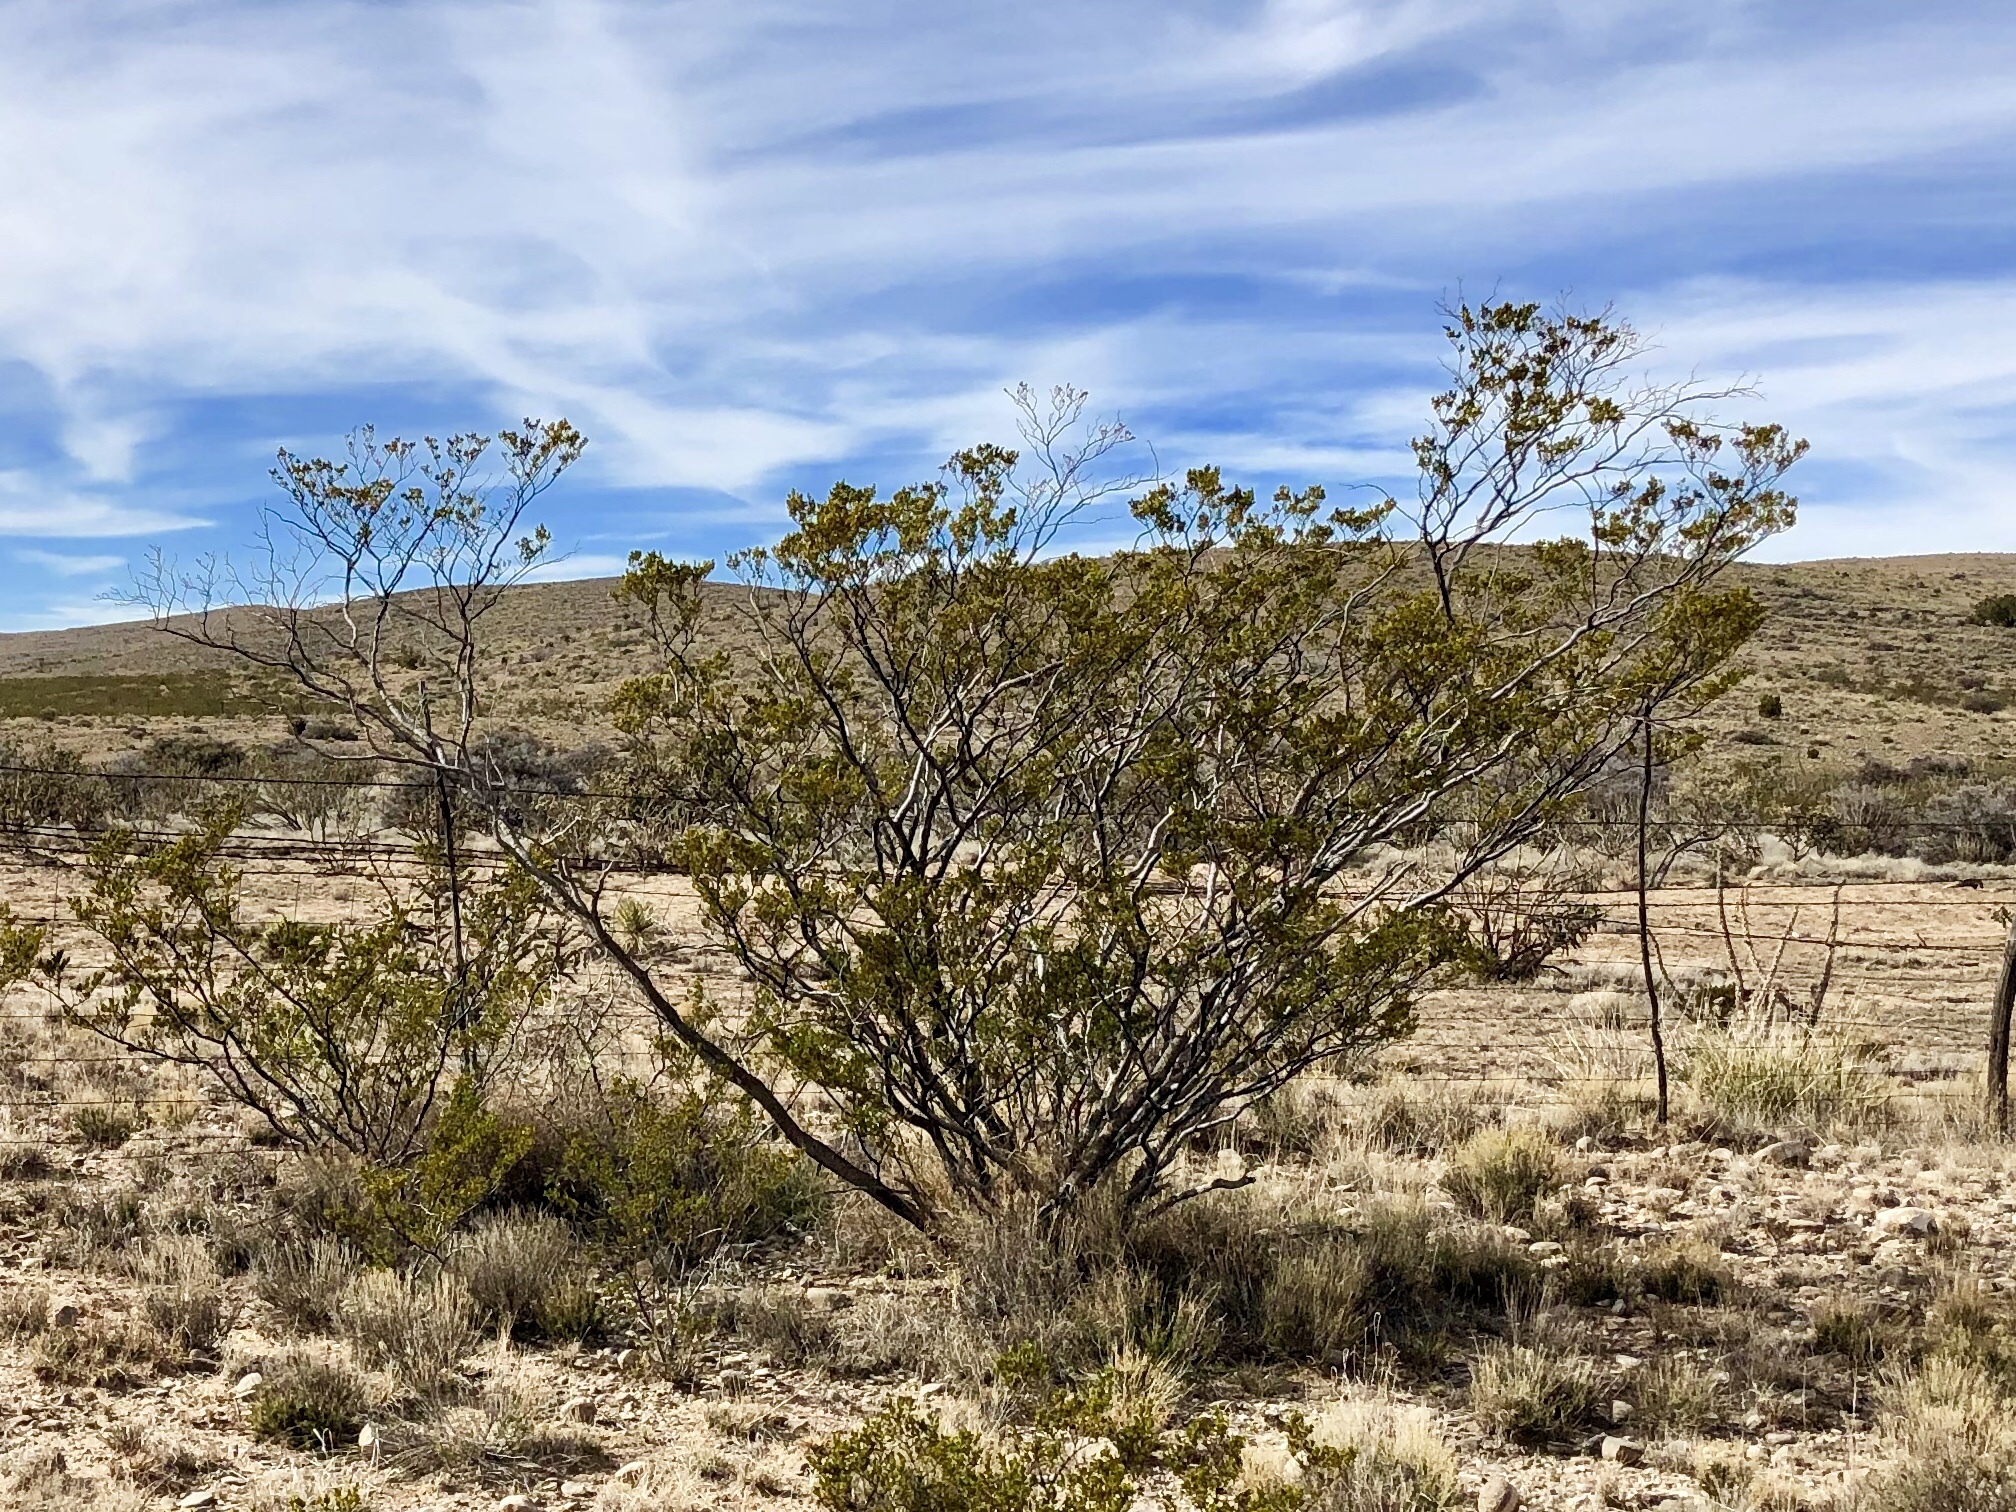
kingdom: Plantae
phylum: Tracheophyta
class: Magnoliopsida
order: Zygophyllales
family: Zygophyllaceae
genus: Larrea
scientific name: Larrea tridentata
